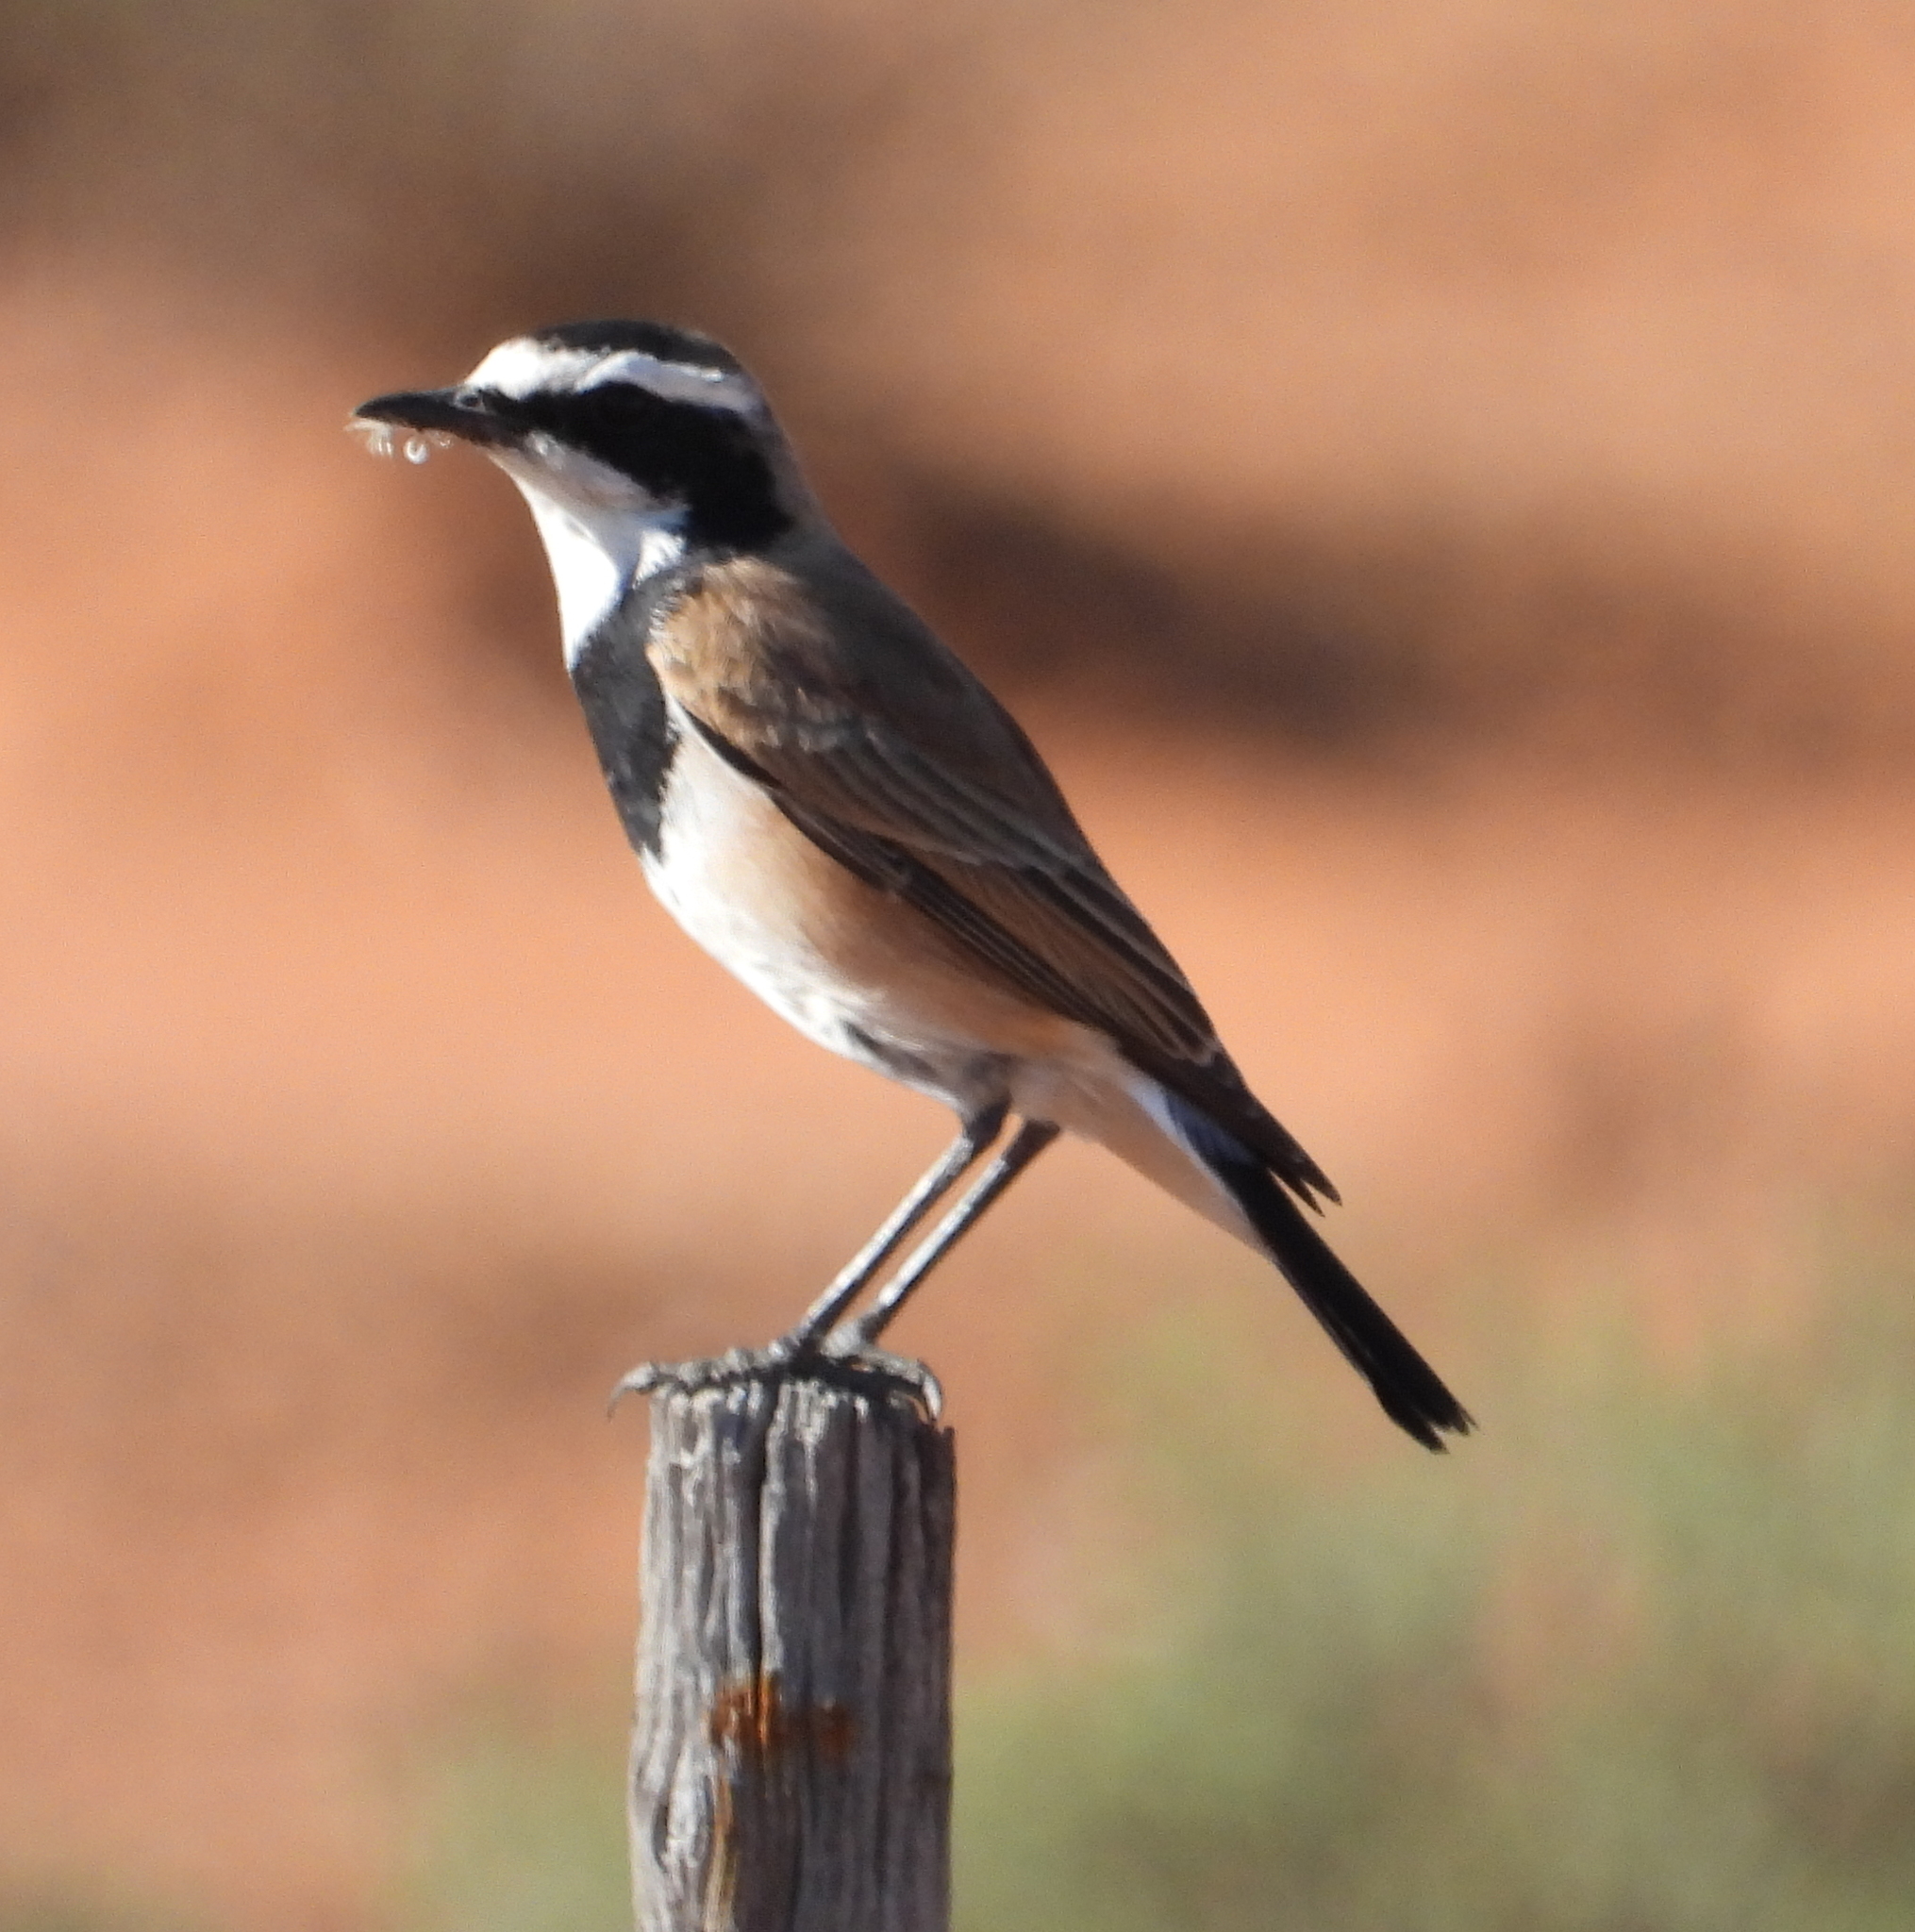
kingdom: Animalia
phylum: Chordata
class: Aves
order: Passeriformes
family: Muscicapidae
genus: Oenanthe
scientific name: Oenanthe pileata
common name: Capped wheatear
